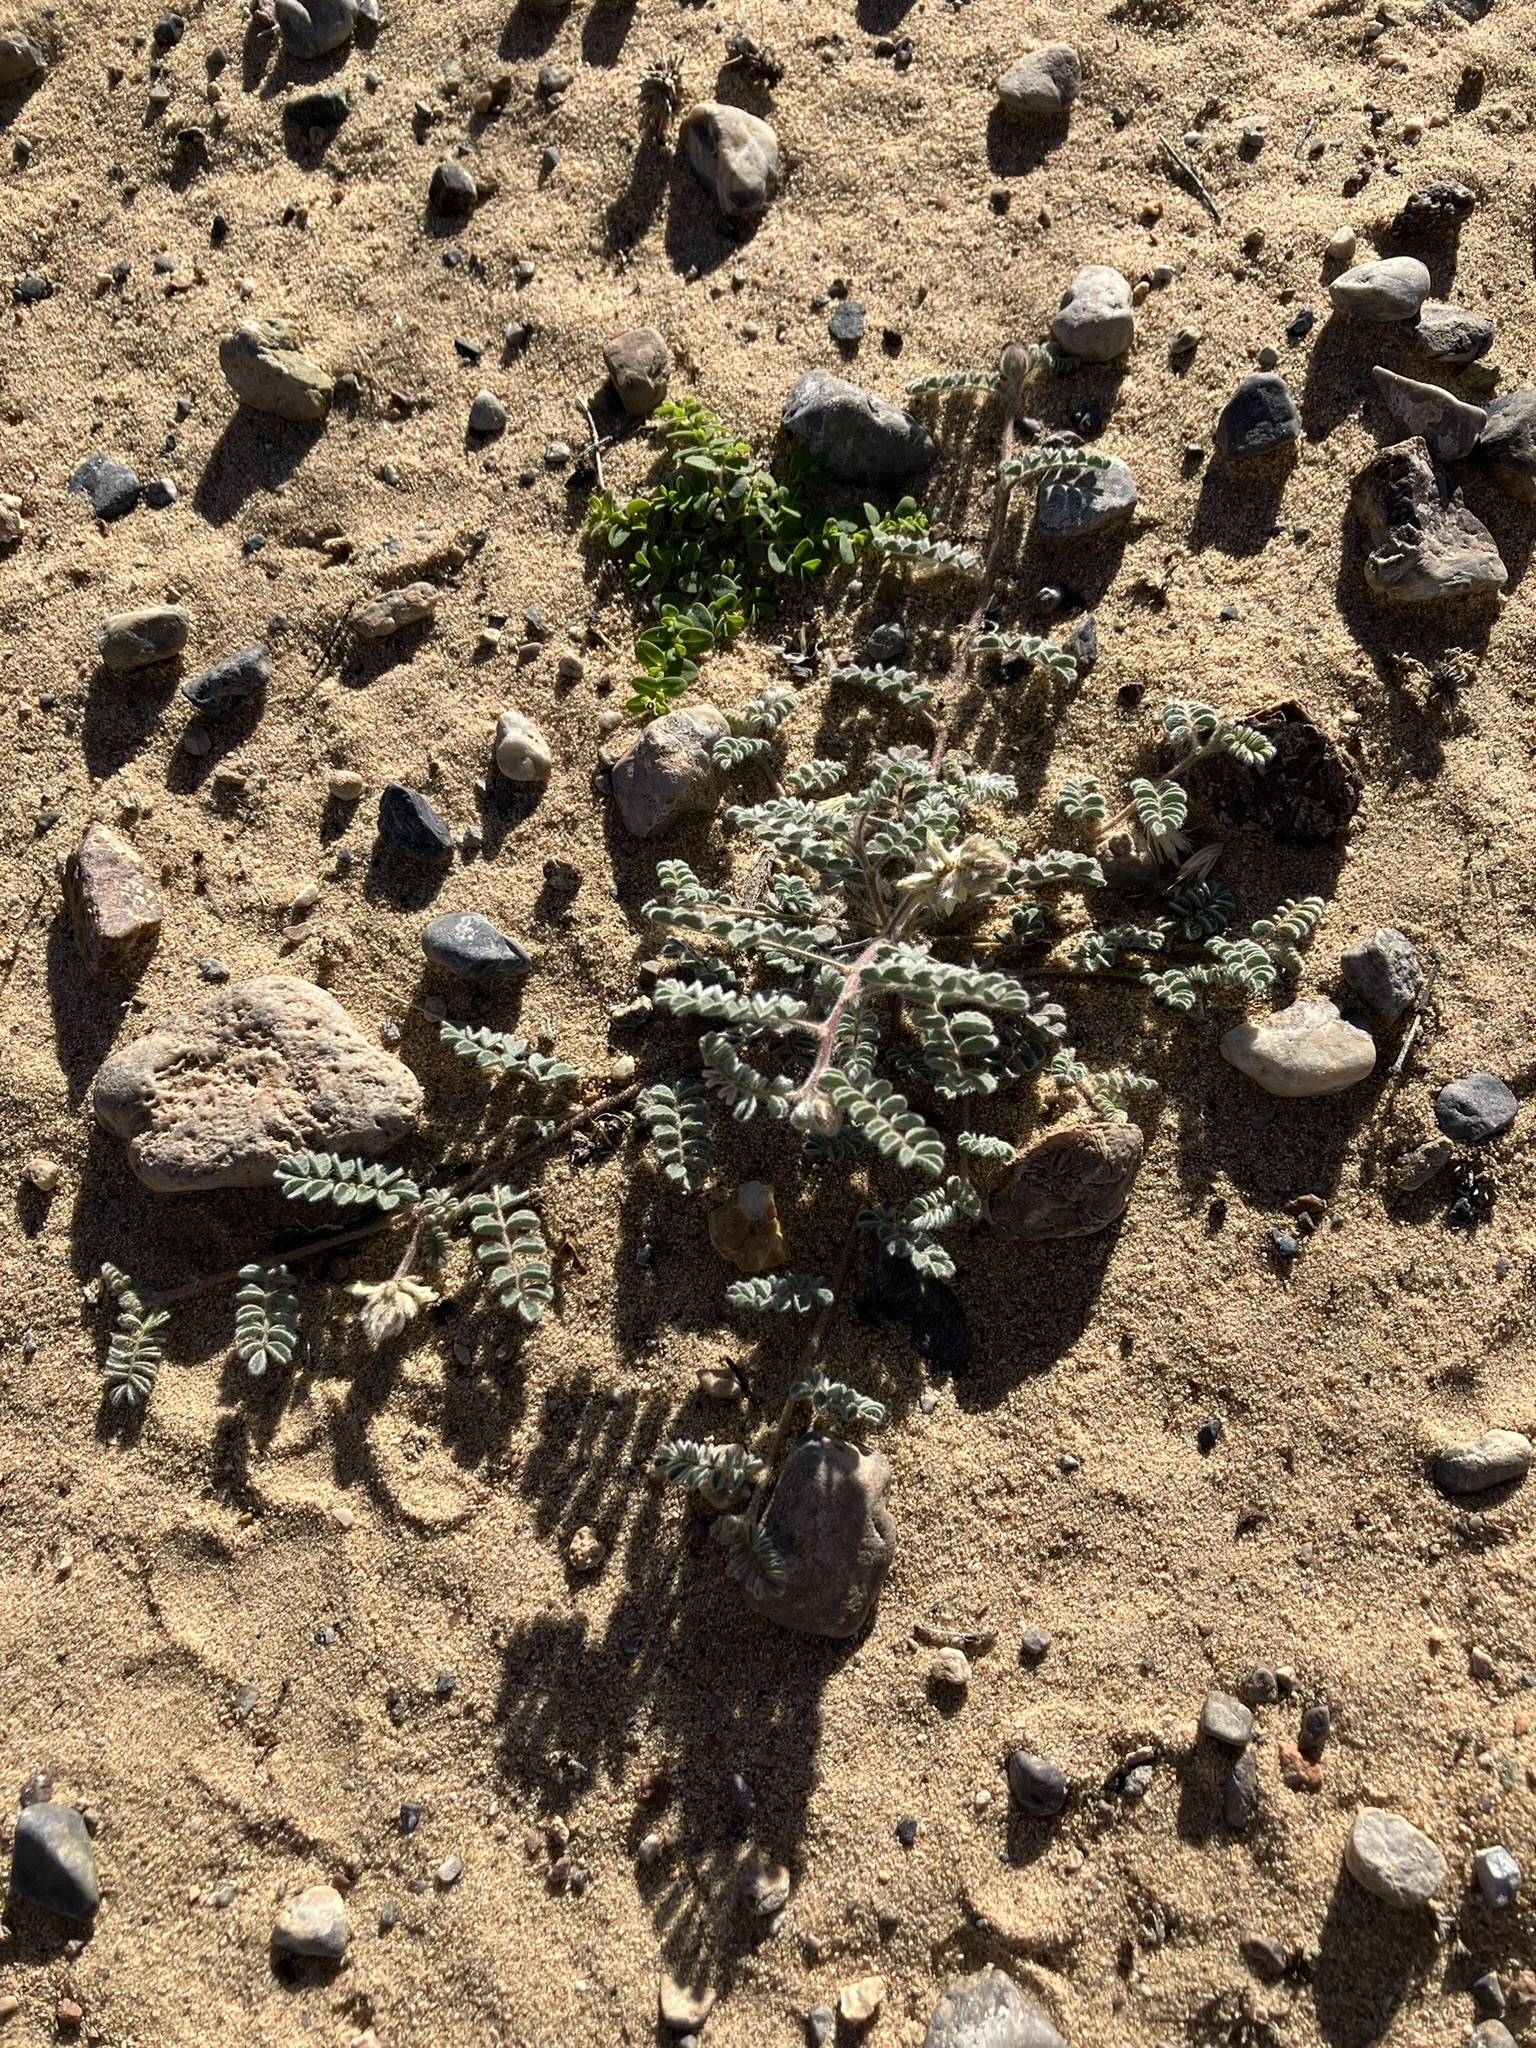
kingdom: Plantae
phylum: Tracheophyta
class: Magnoliopsida
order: Fabales
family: Fabaceae
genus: Dalea
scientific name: Dalea mollis
